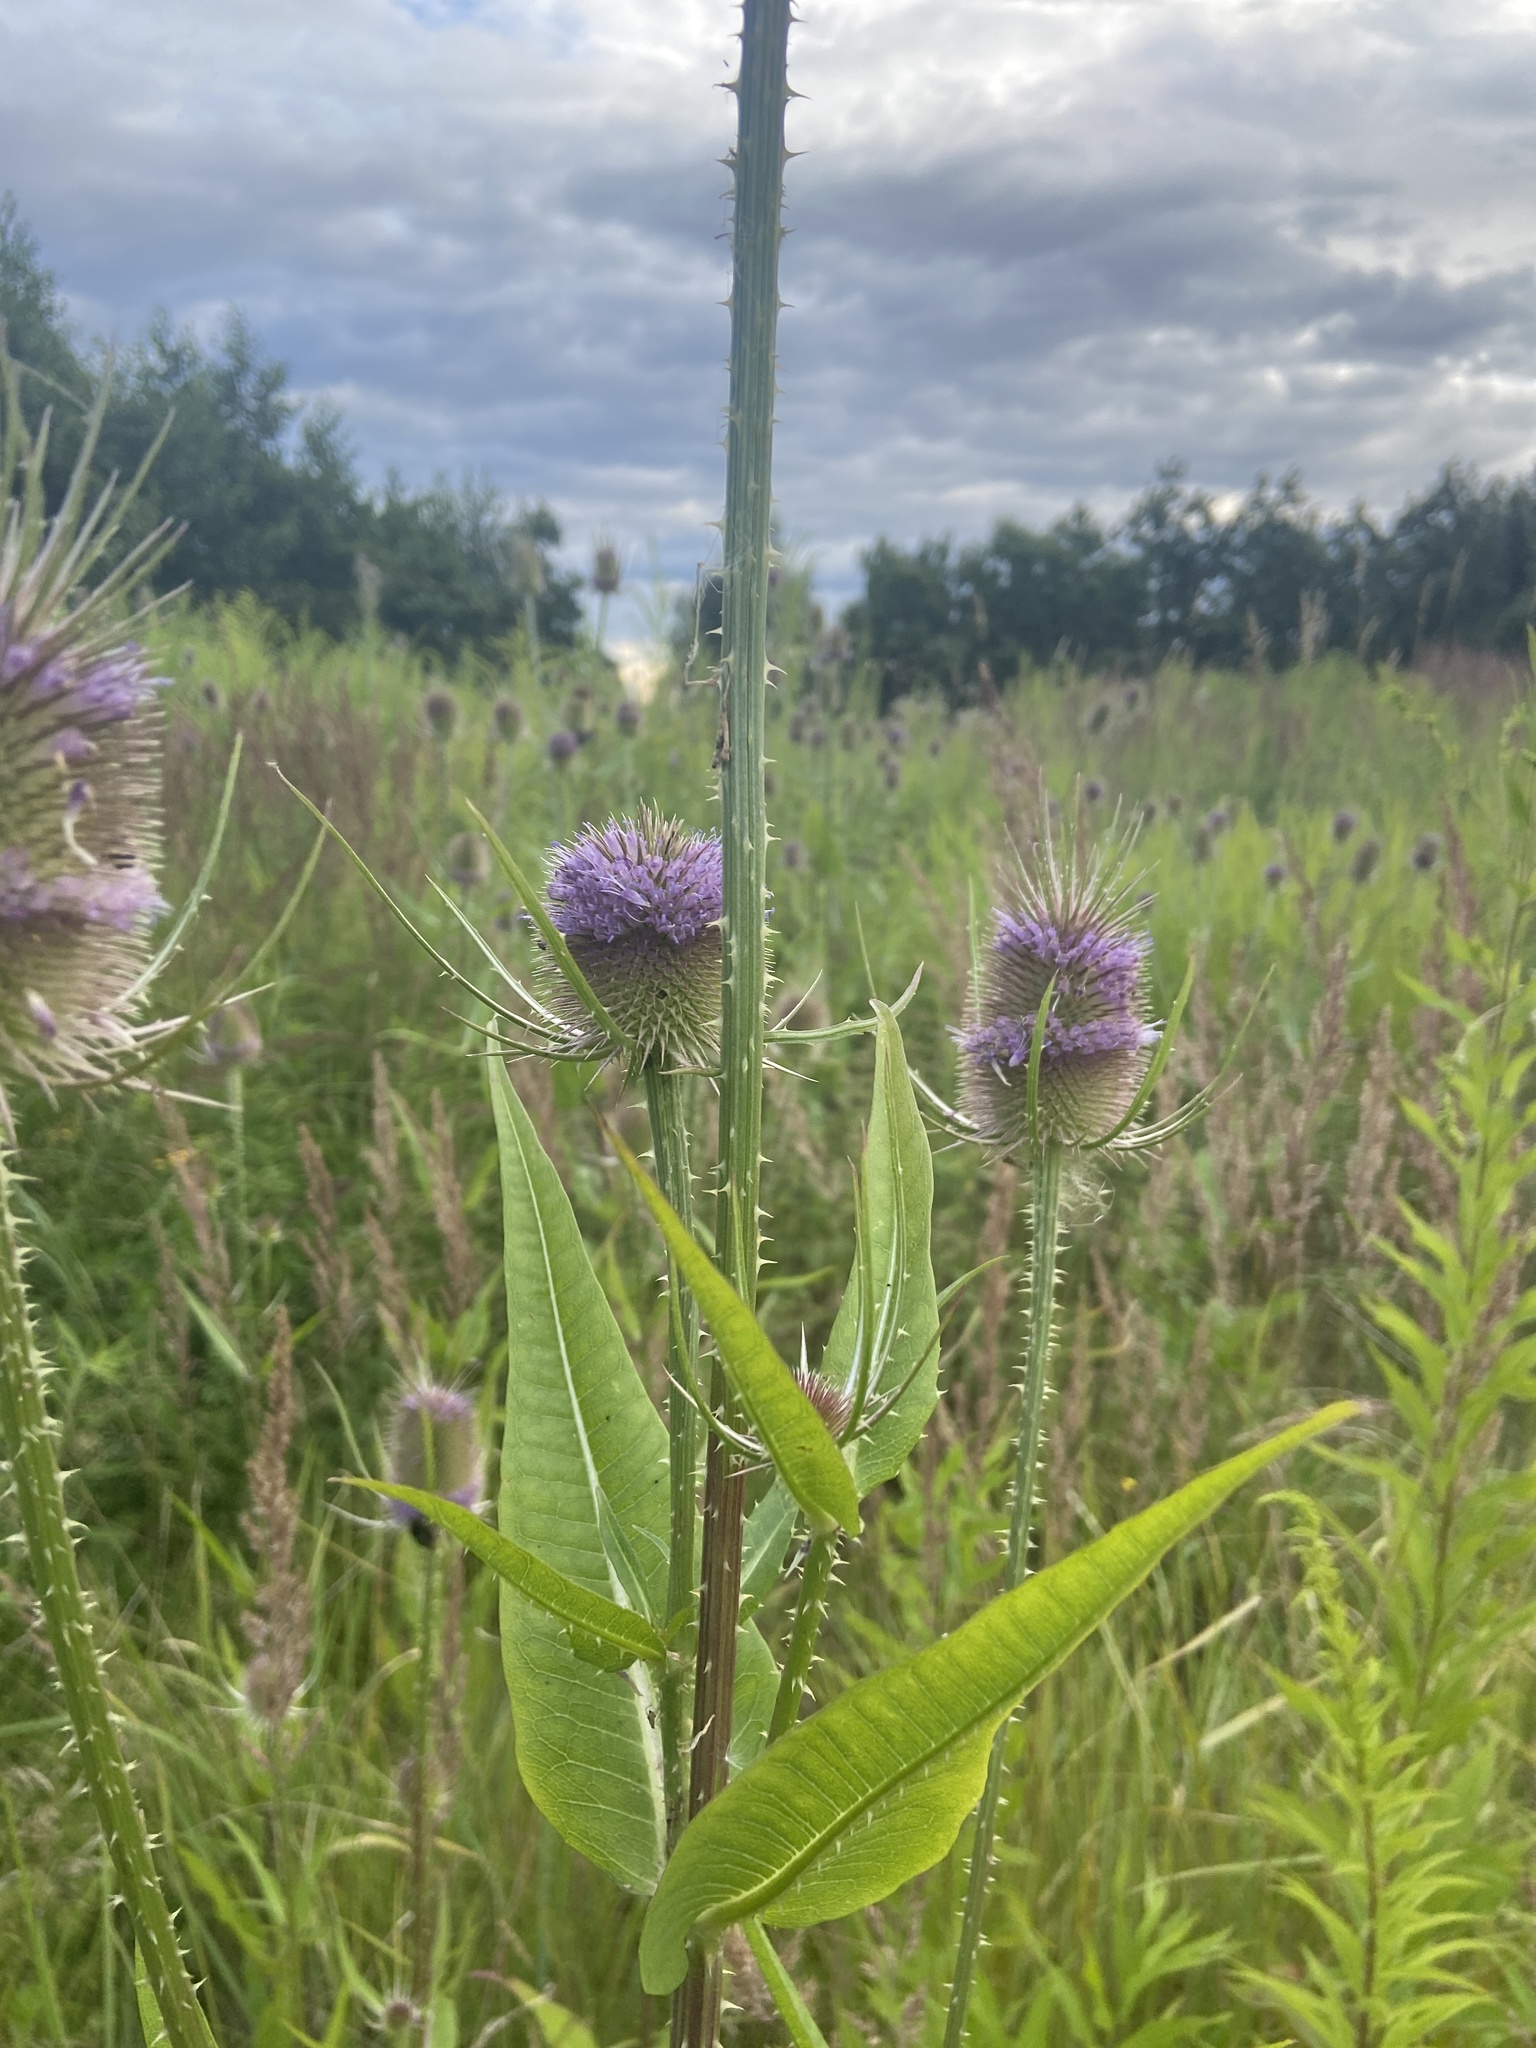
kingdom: Plantae
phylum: Tracheophyta
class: Magnoliopsida
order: Dipsacales
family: Caprifoliaceae
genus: Dipsacus
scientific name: Dipsacus fullonum
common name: Teasel
